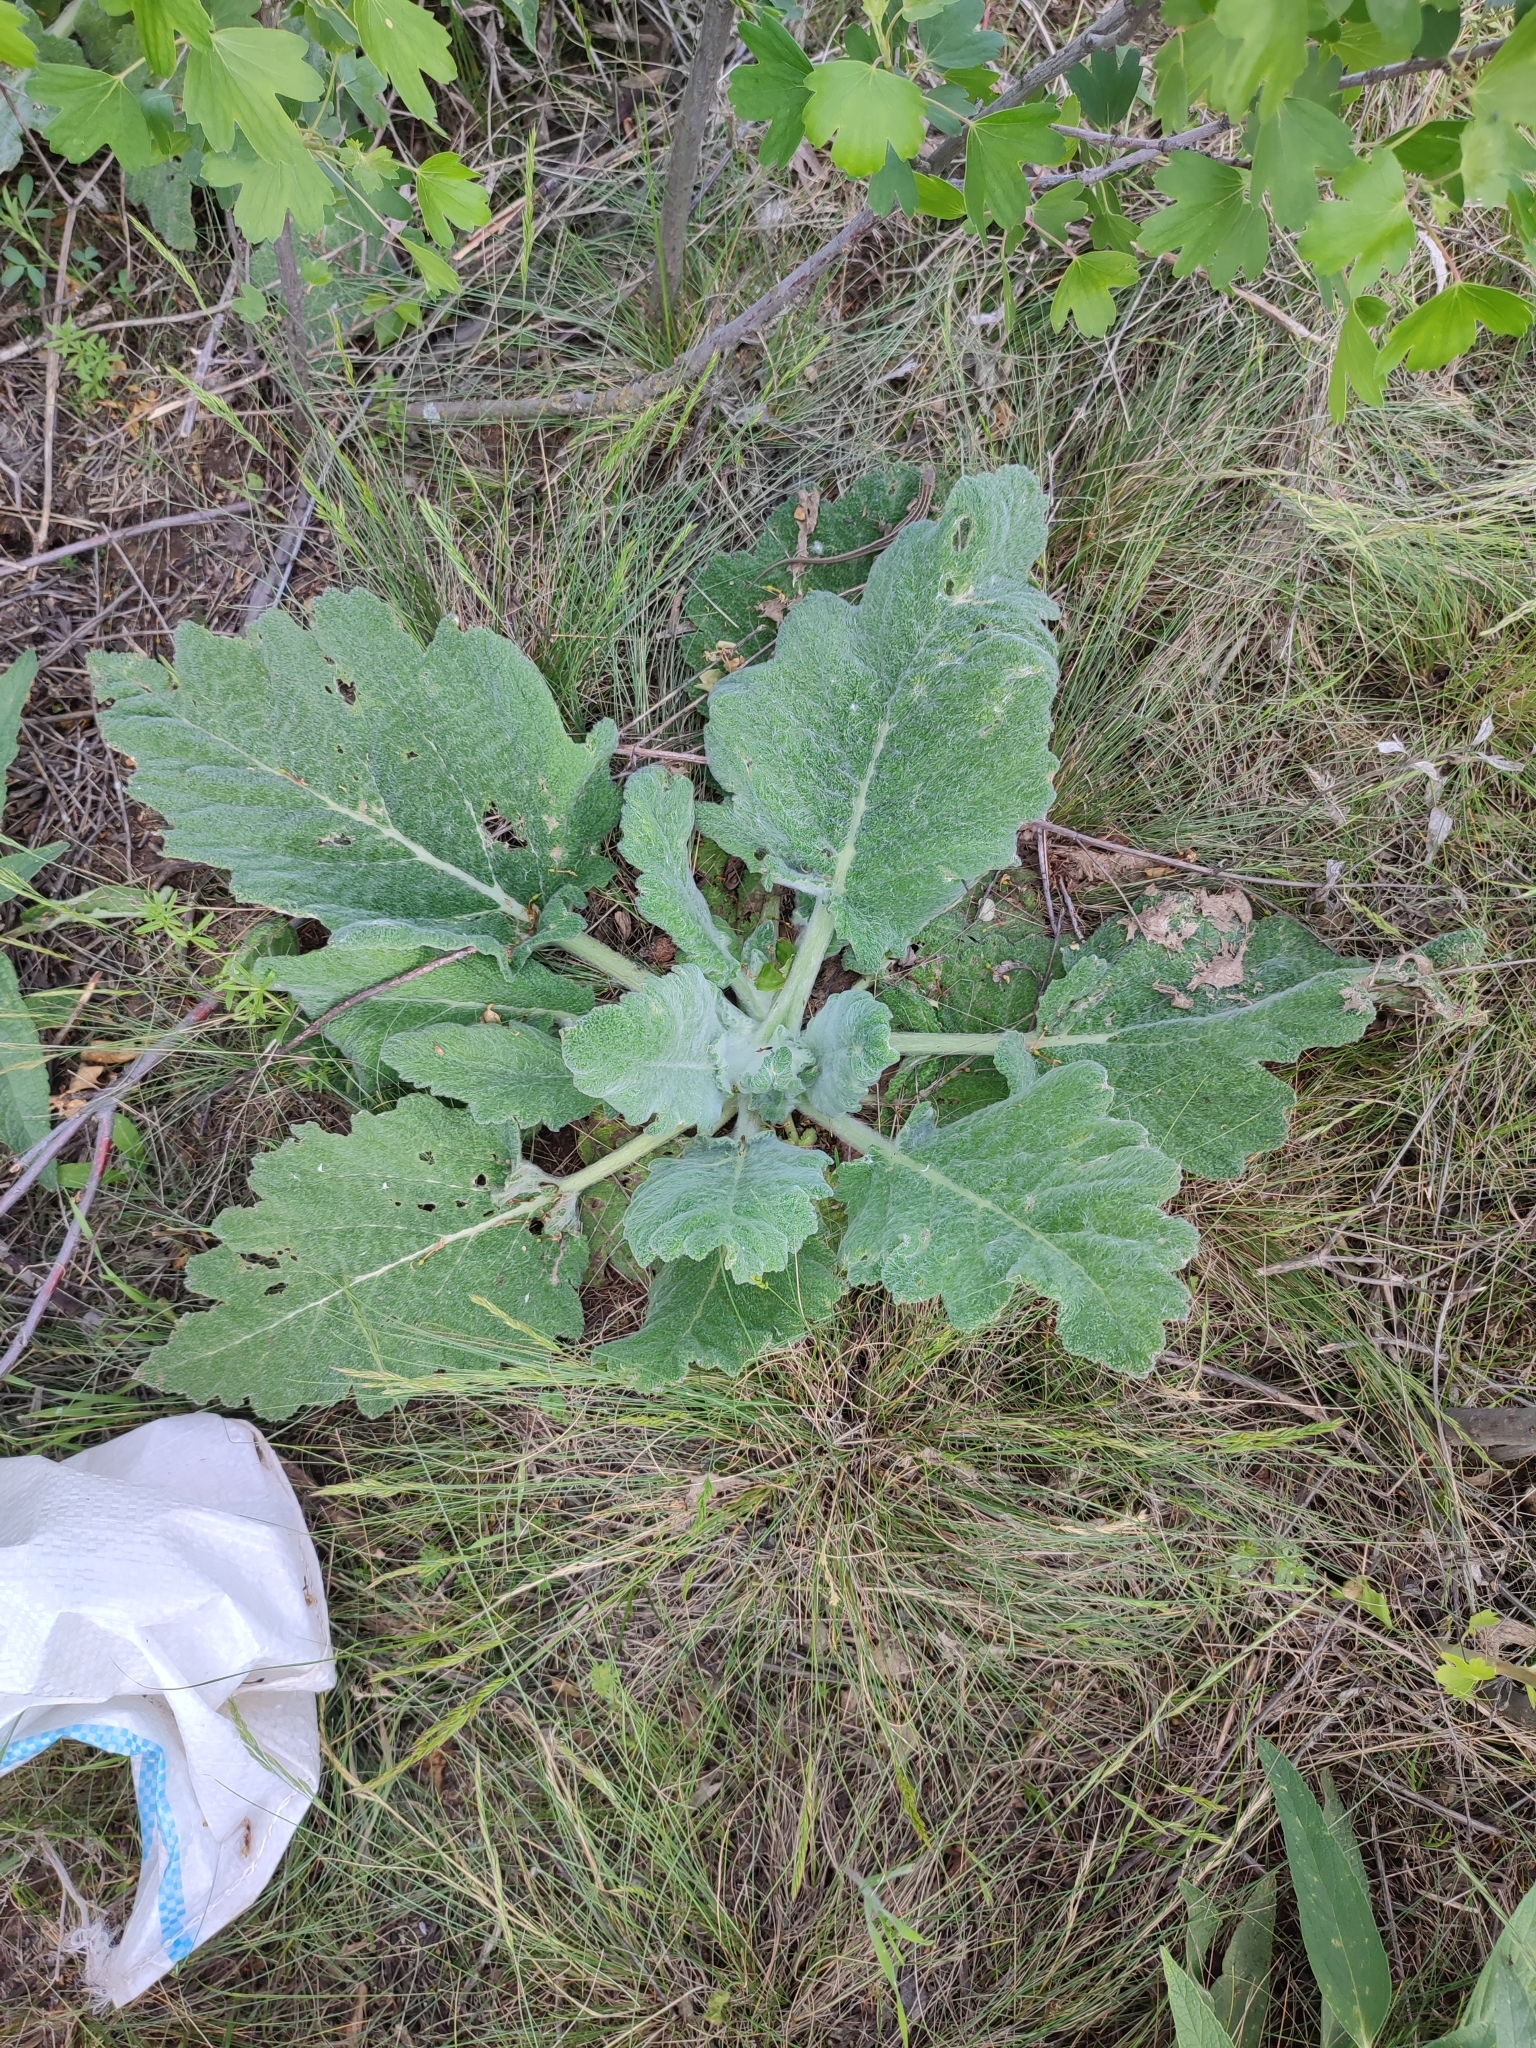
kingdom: Plantae
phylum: Tracheophyta
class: Magnoliopsida
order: Lamiales
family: Lamiaceae
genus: Salvia
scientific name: Salvia aethiopis
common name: Mediterranean sage
